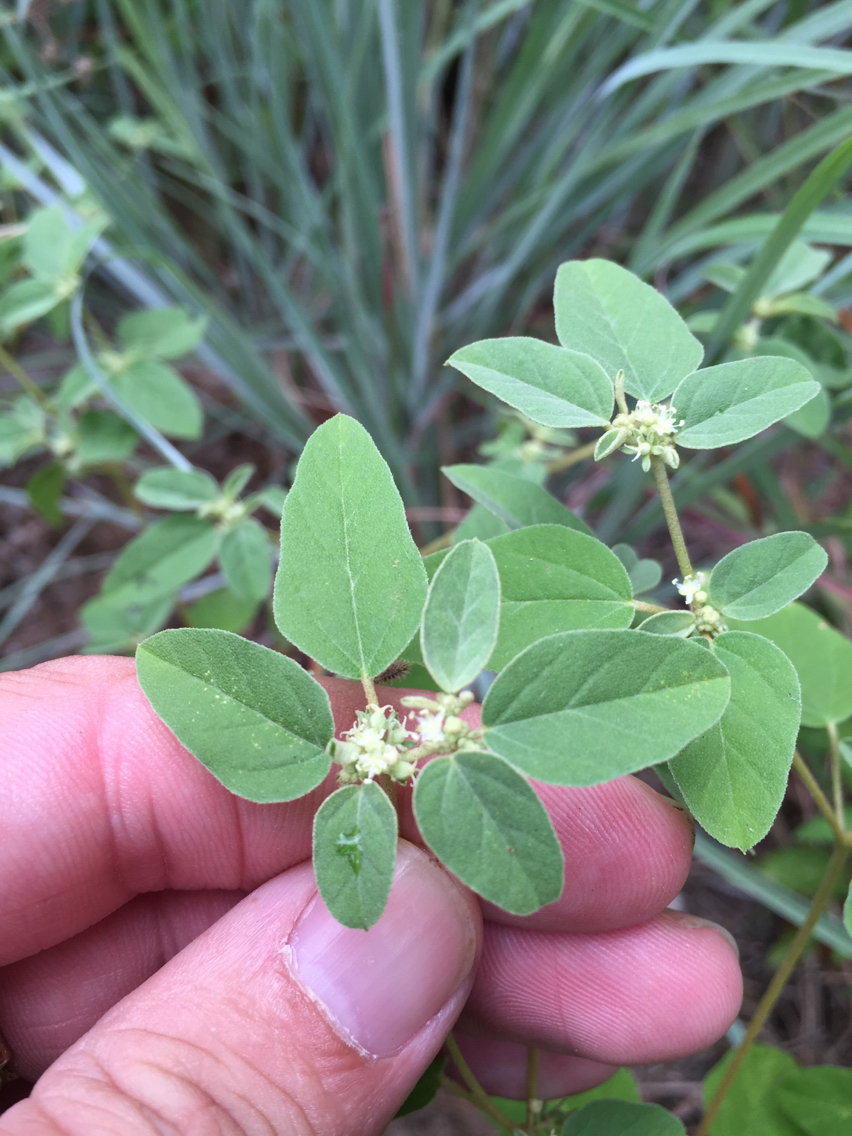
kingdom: Plantae
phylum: Tracheophyta
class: Magnoliopsida
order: Malpighiales
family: Euphorbiaceae
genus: Croton
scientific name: Croton monanthogynus
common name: One-seed croton
